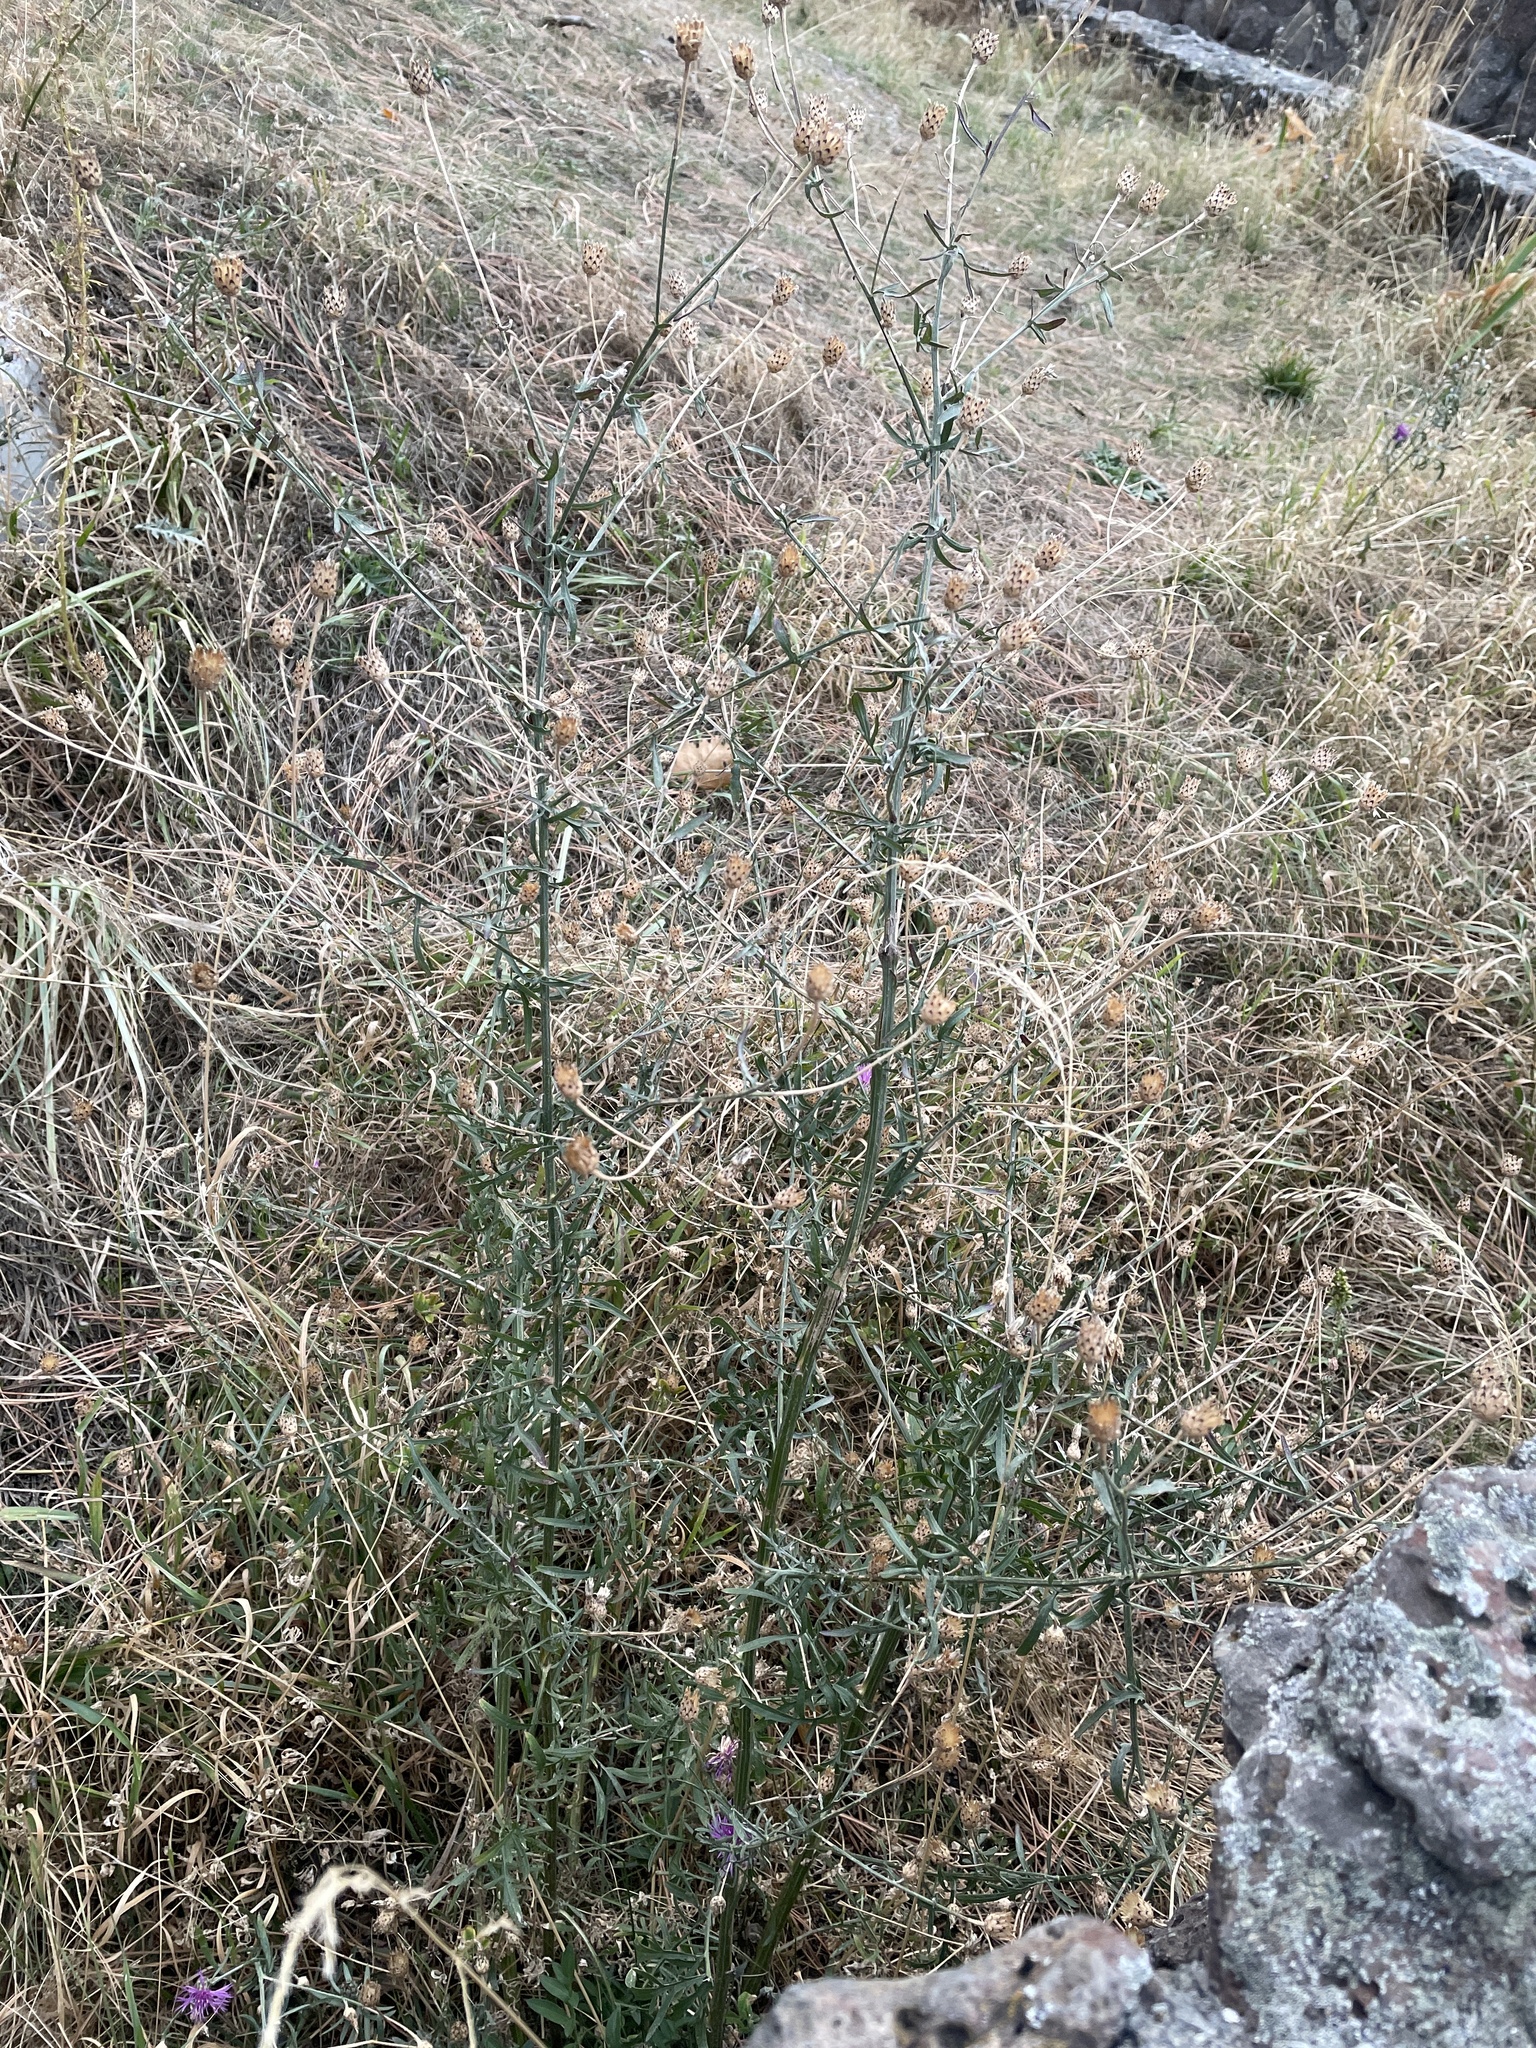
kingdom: Plantae
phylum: Tracheophyta
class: Magnoliopsida
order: Asterales
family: Asteraceae
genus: Centaurea
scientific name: Centaurea stoebe
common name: Spotted knapweed
